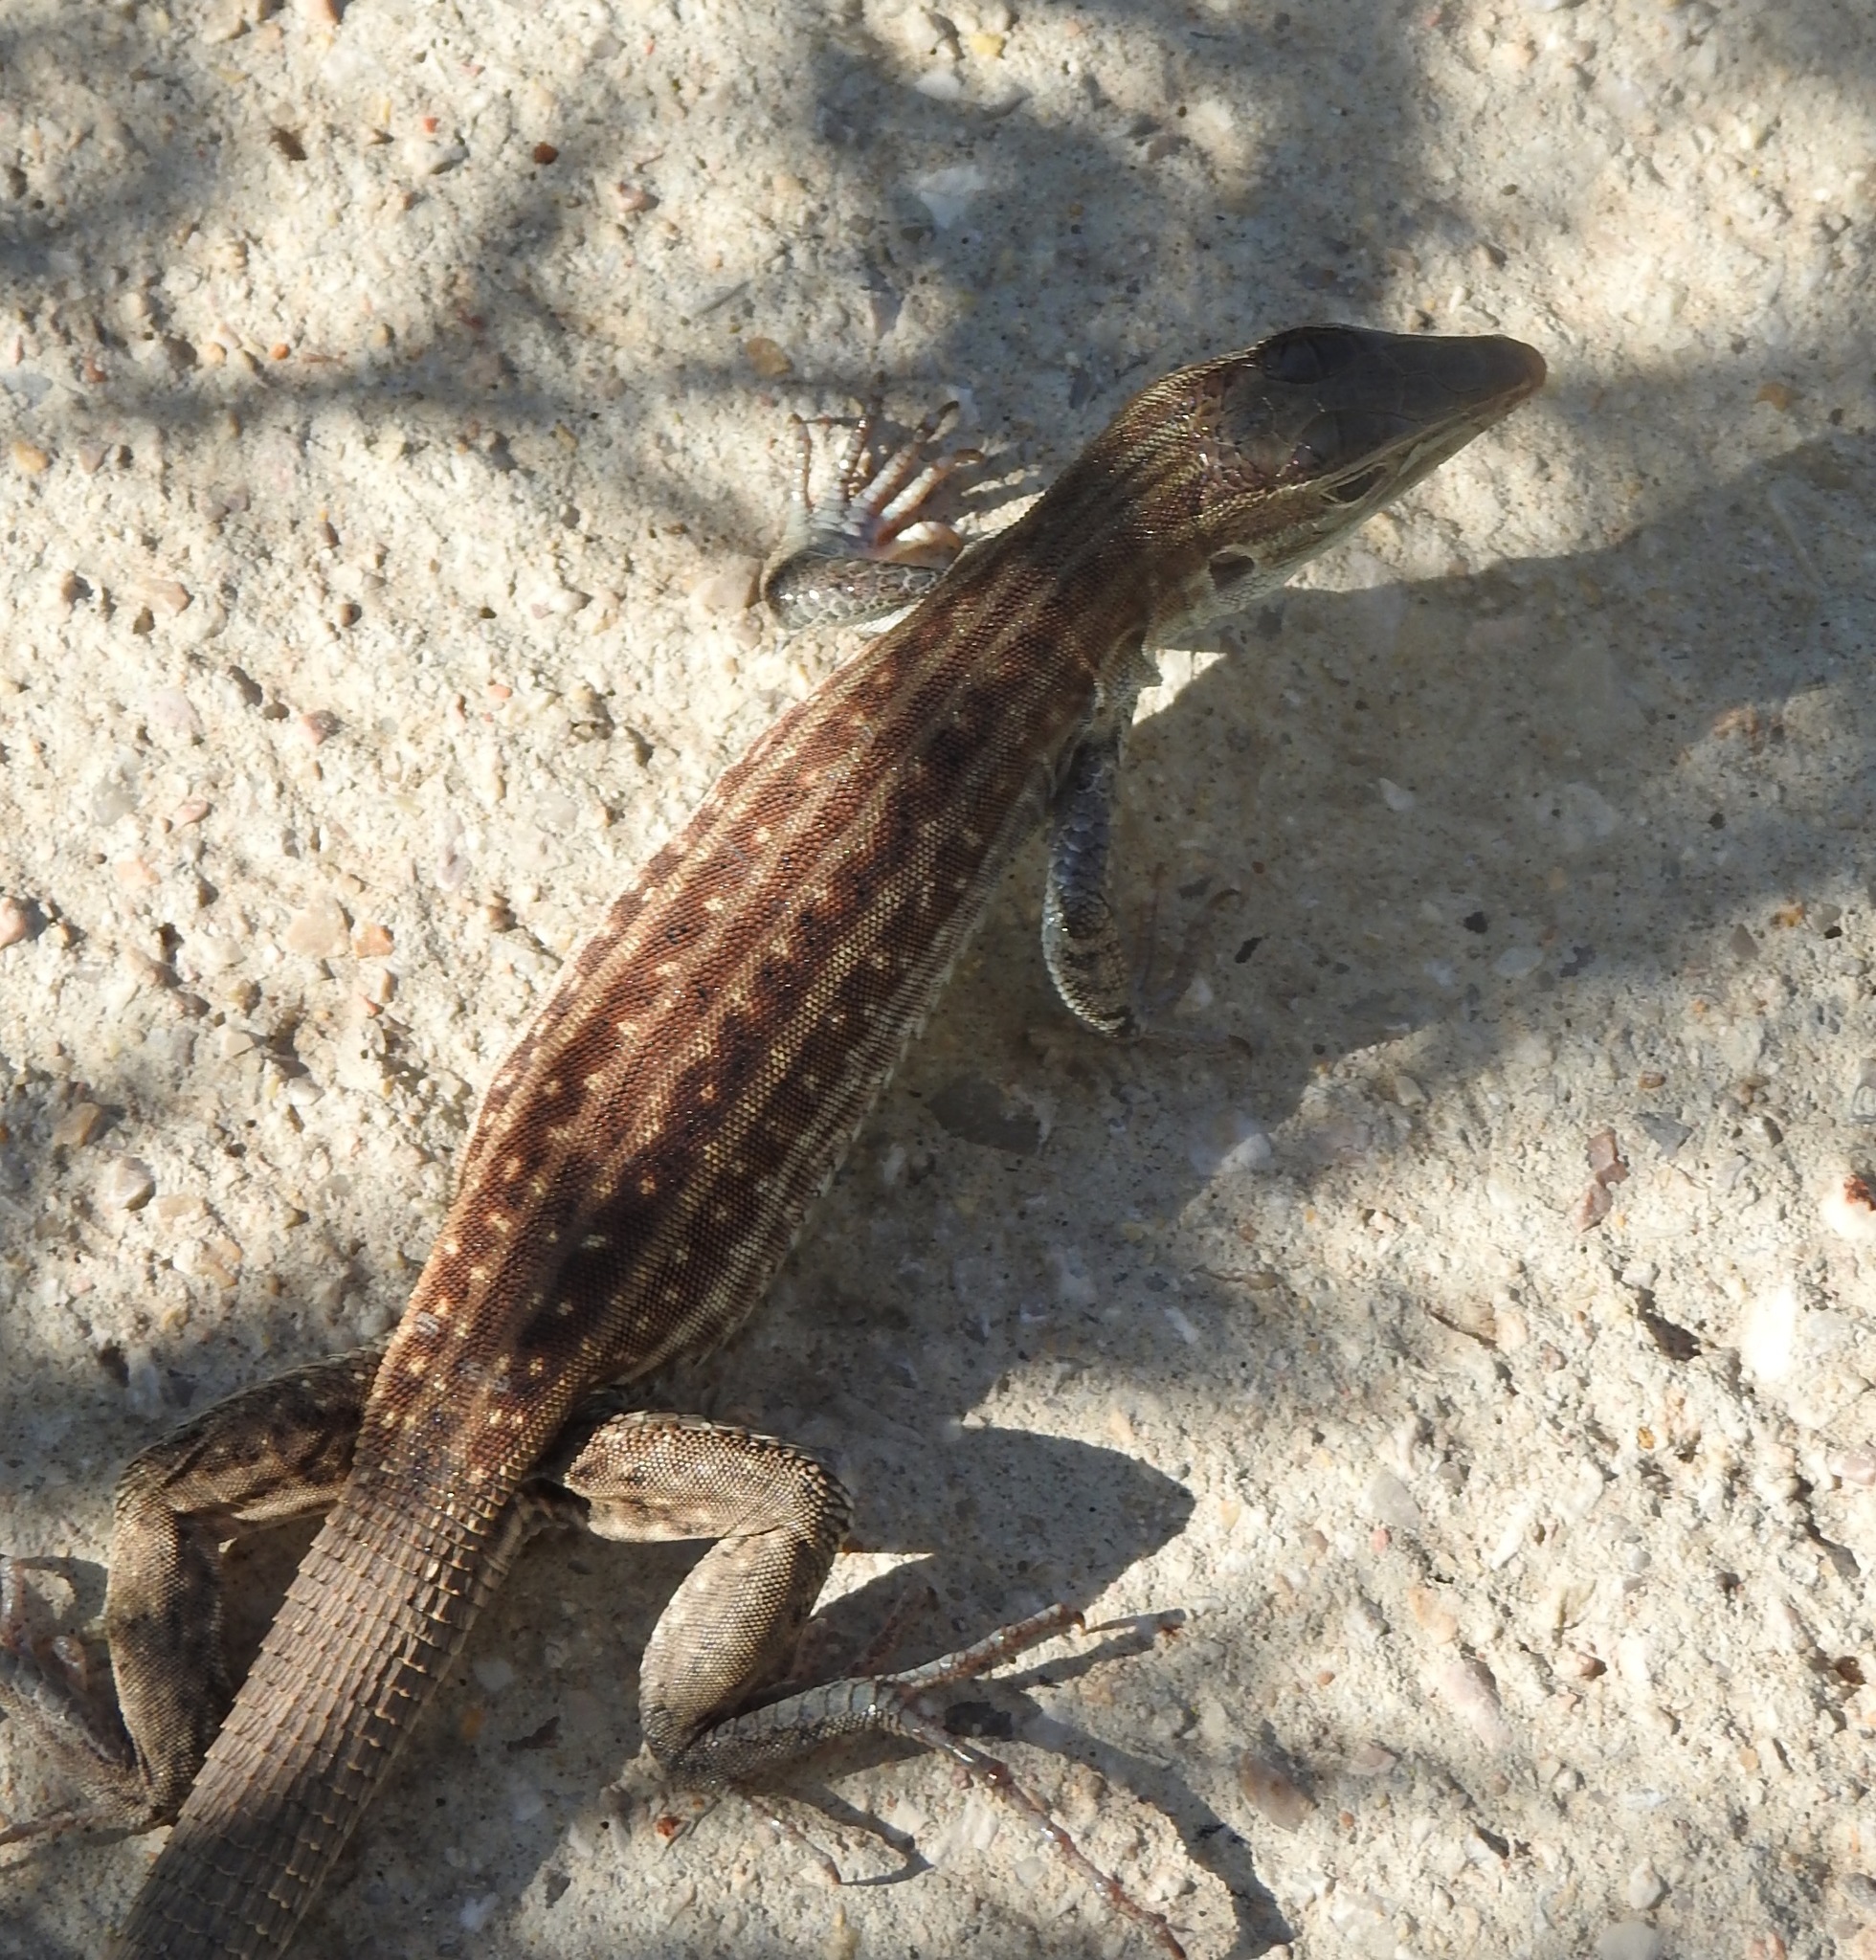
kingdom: Animalia
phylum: Chordata
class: Squamata
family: Teiidae
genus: Aspidoscelis
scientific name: Aspidoscelis exsanguis
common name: Chihuahuan spotted whiptail
